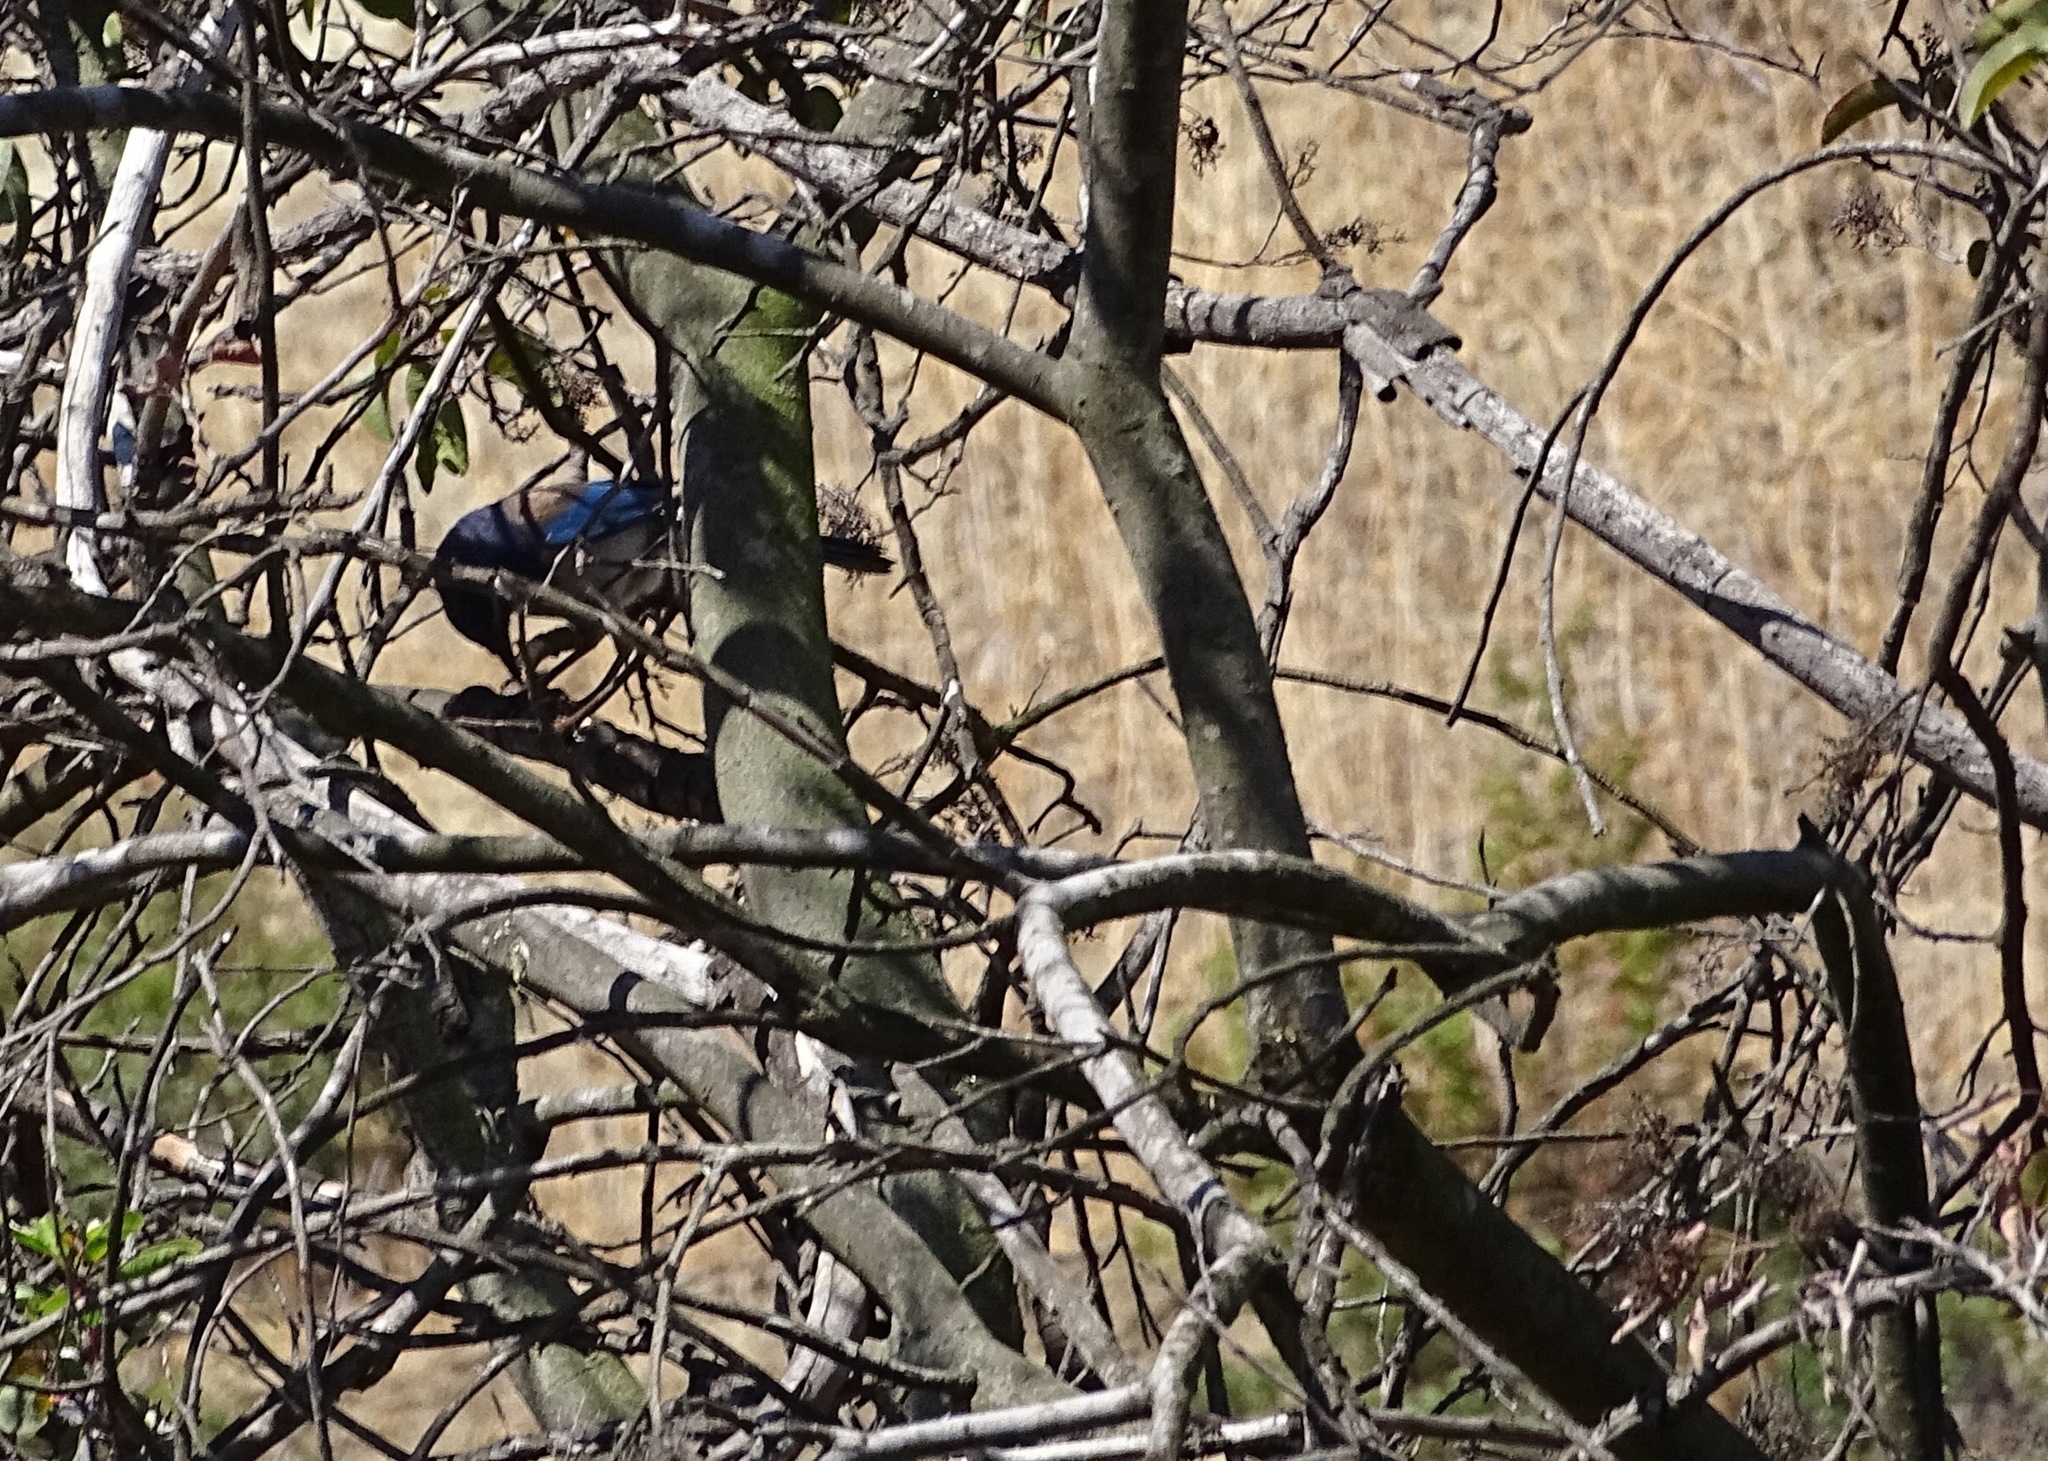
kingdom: Animalia
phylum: Chordata
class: Aves
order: Passeriformes
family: Corvidae
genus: Aphelocoma
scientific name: Aphelocoma californica
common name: California scrub-jay
